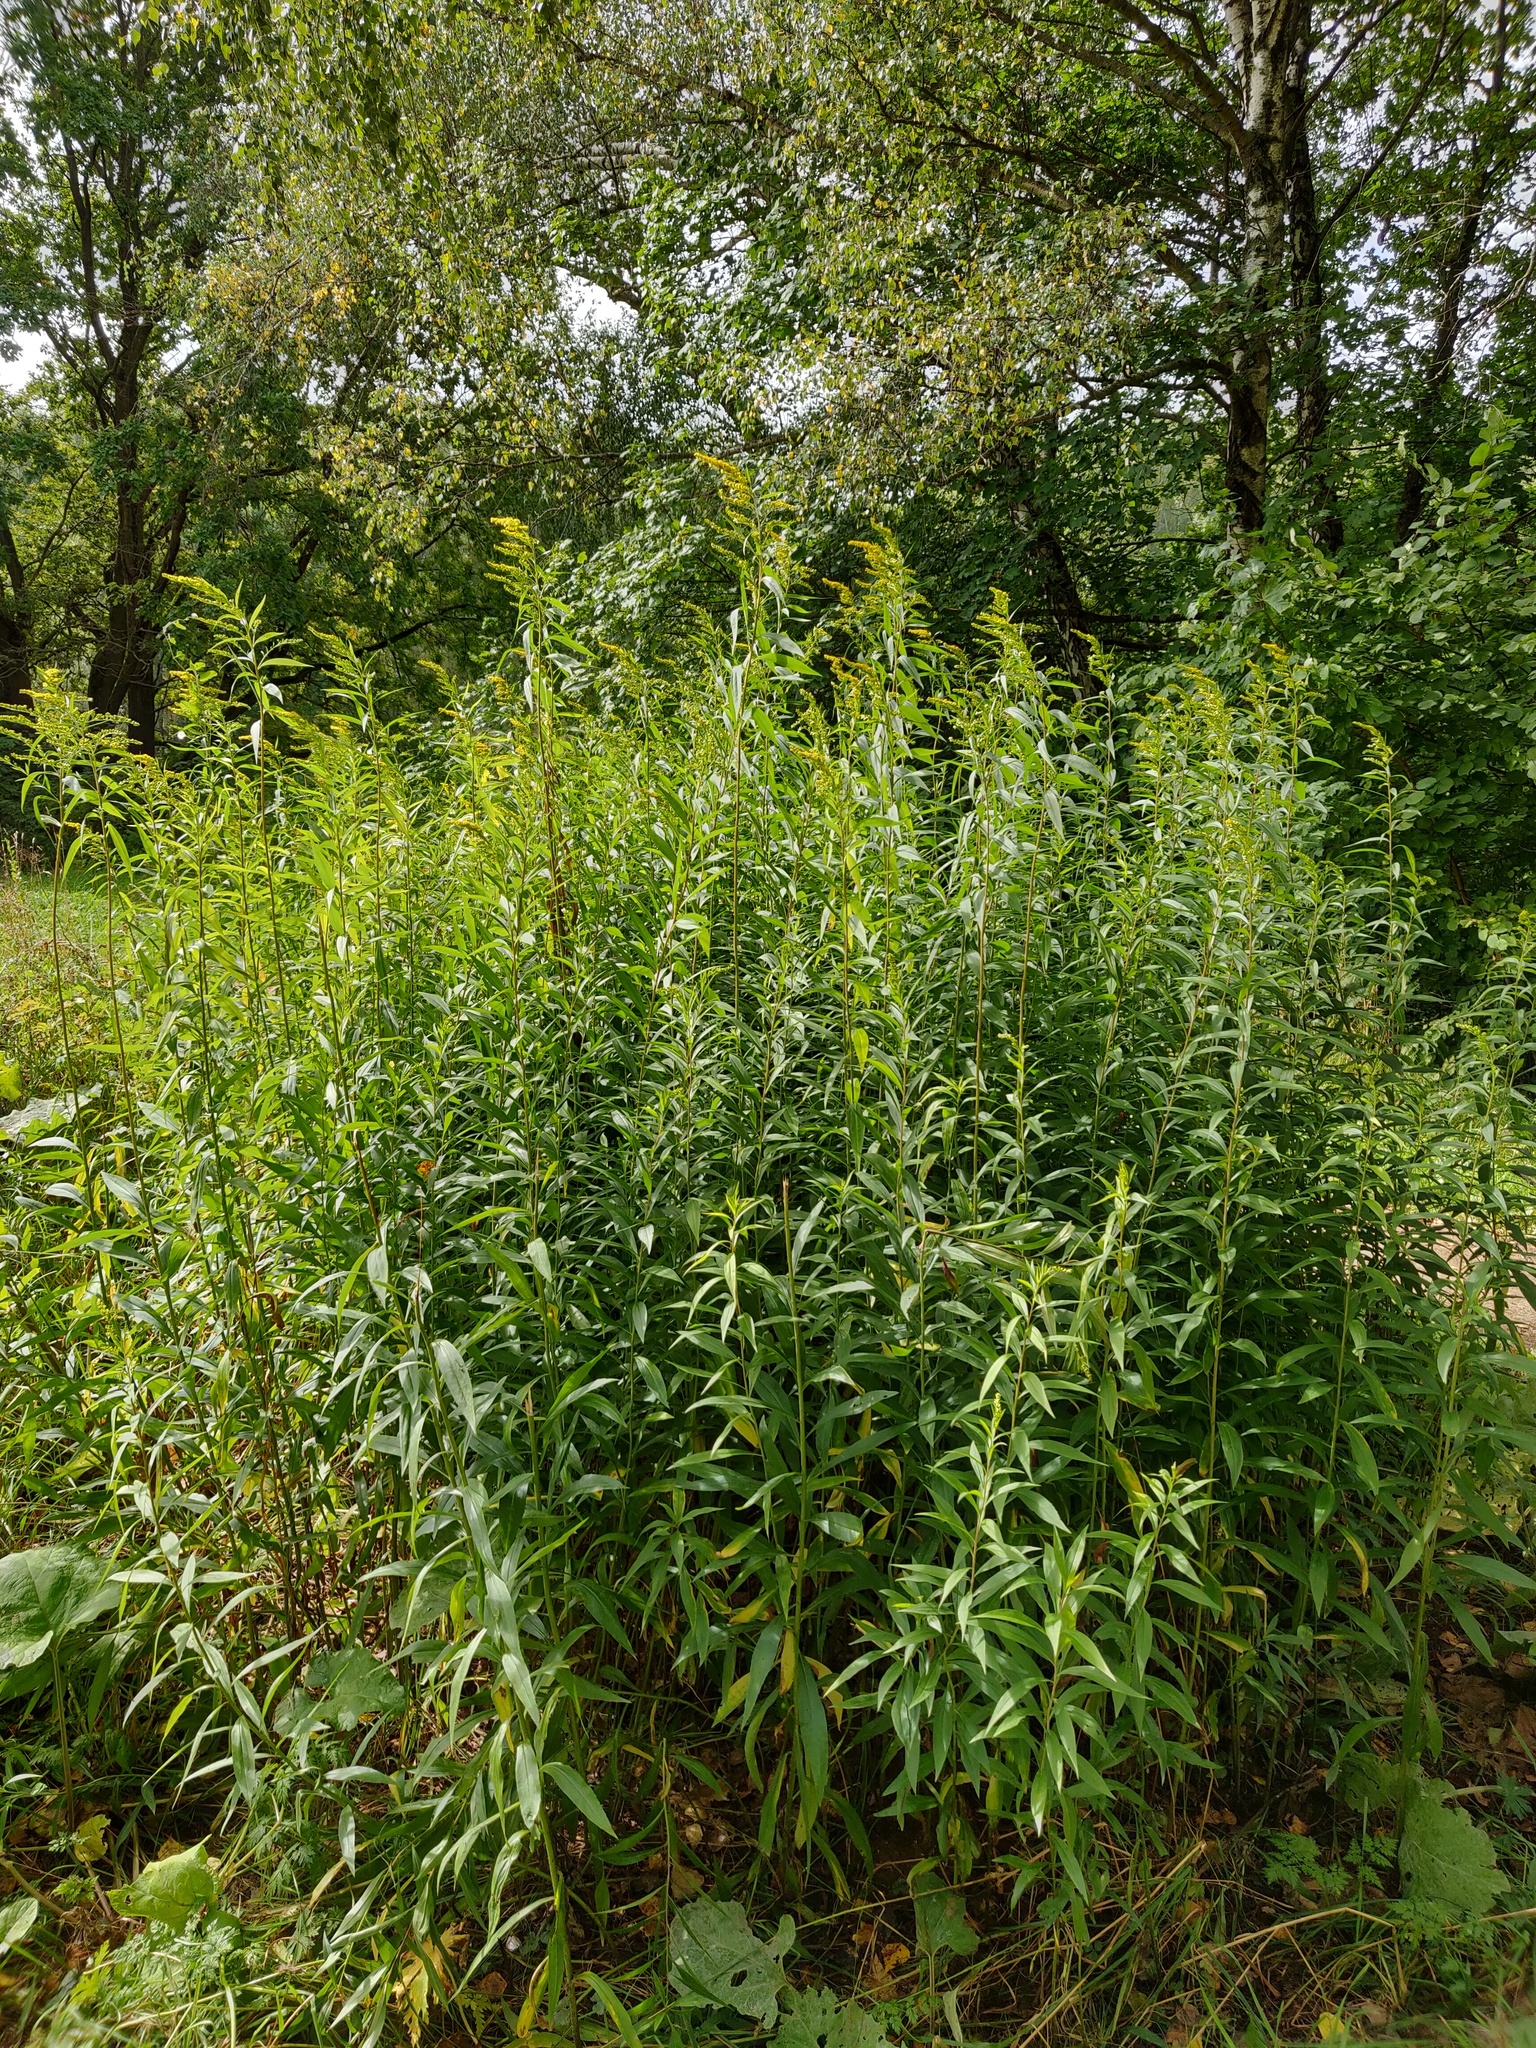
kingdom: Plantae
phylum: Tracheophyta
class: Magnoliopsida
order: Asterales
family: Asteraceae
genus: Solidago
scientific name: Solidago canadensis
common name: Canada goldenrod
